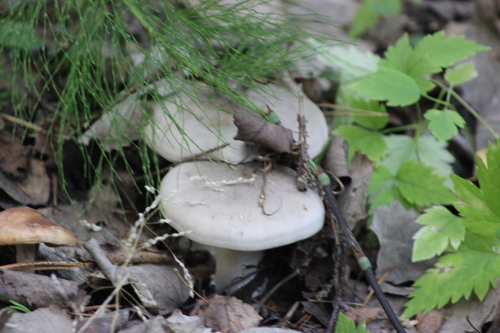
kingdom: Fungi
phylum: Basidiomycota
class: Agaricomycetes
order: Agaricales
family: Tricholomataceae
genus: Clitocybe
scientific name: Clitocybe nebularis
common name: Clouded agaric
